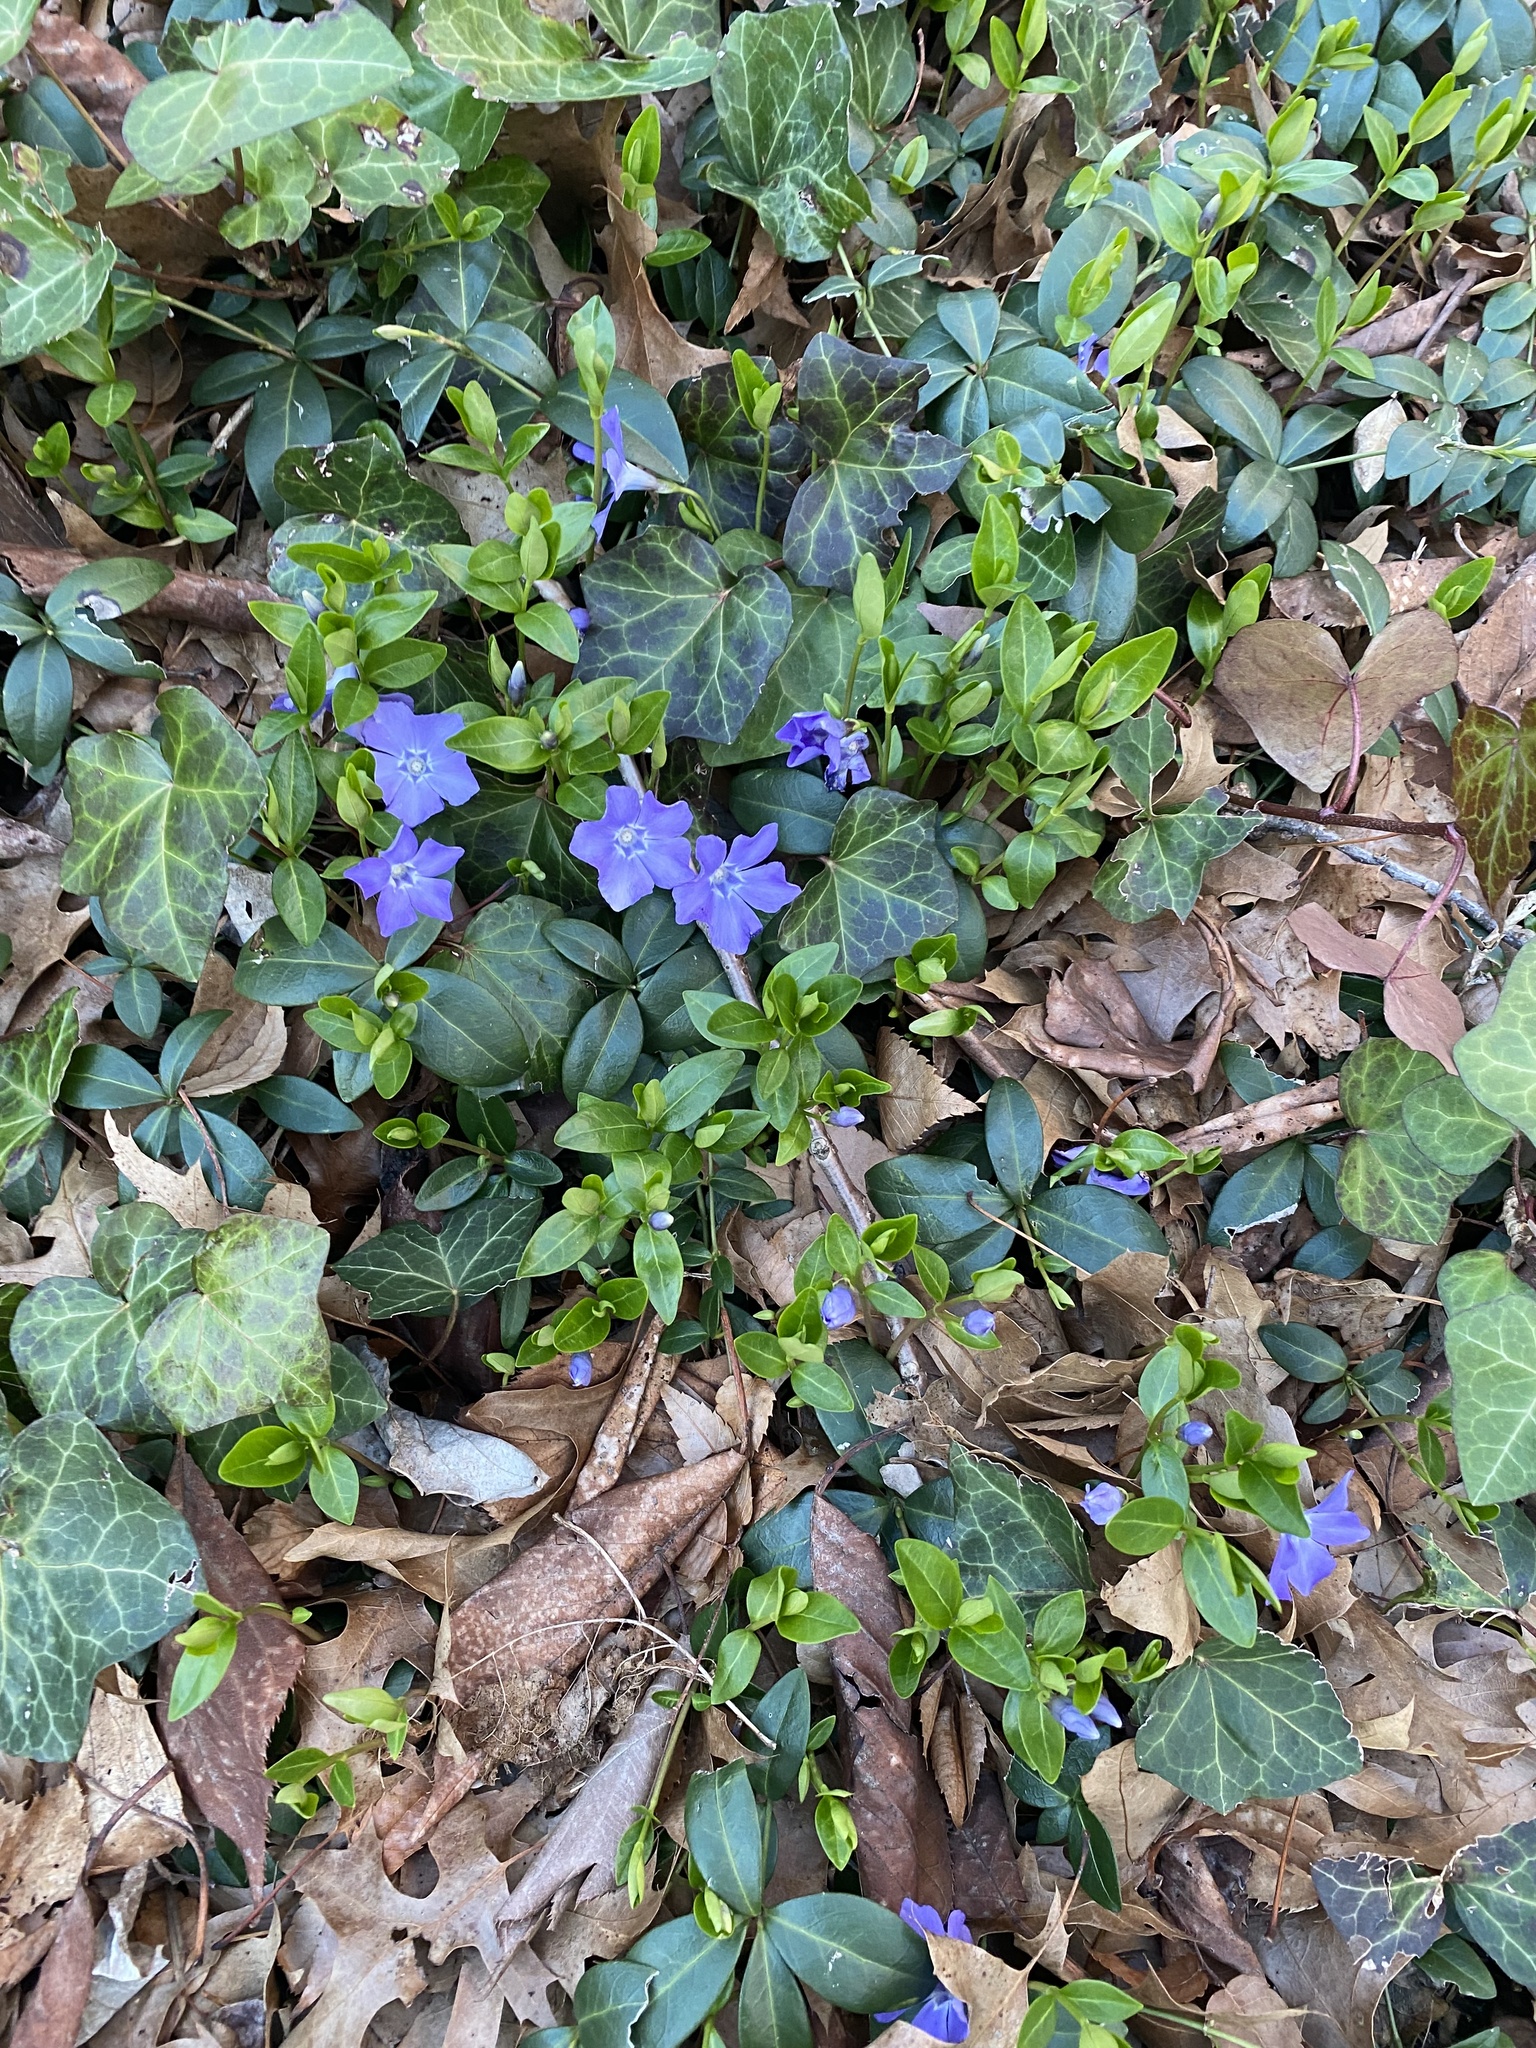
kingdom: Plantae
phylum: Tracheophyta
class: Magnoliopsida
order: Gentianales
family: Apocynaceae
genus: Vinca
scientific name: Vinca minor
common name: Lesser periwinkle
